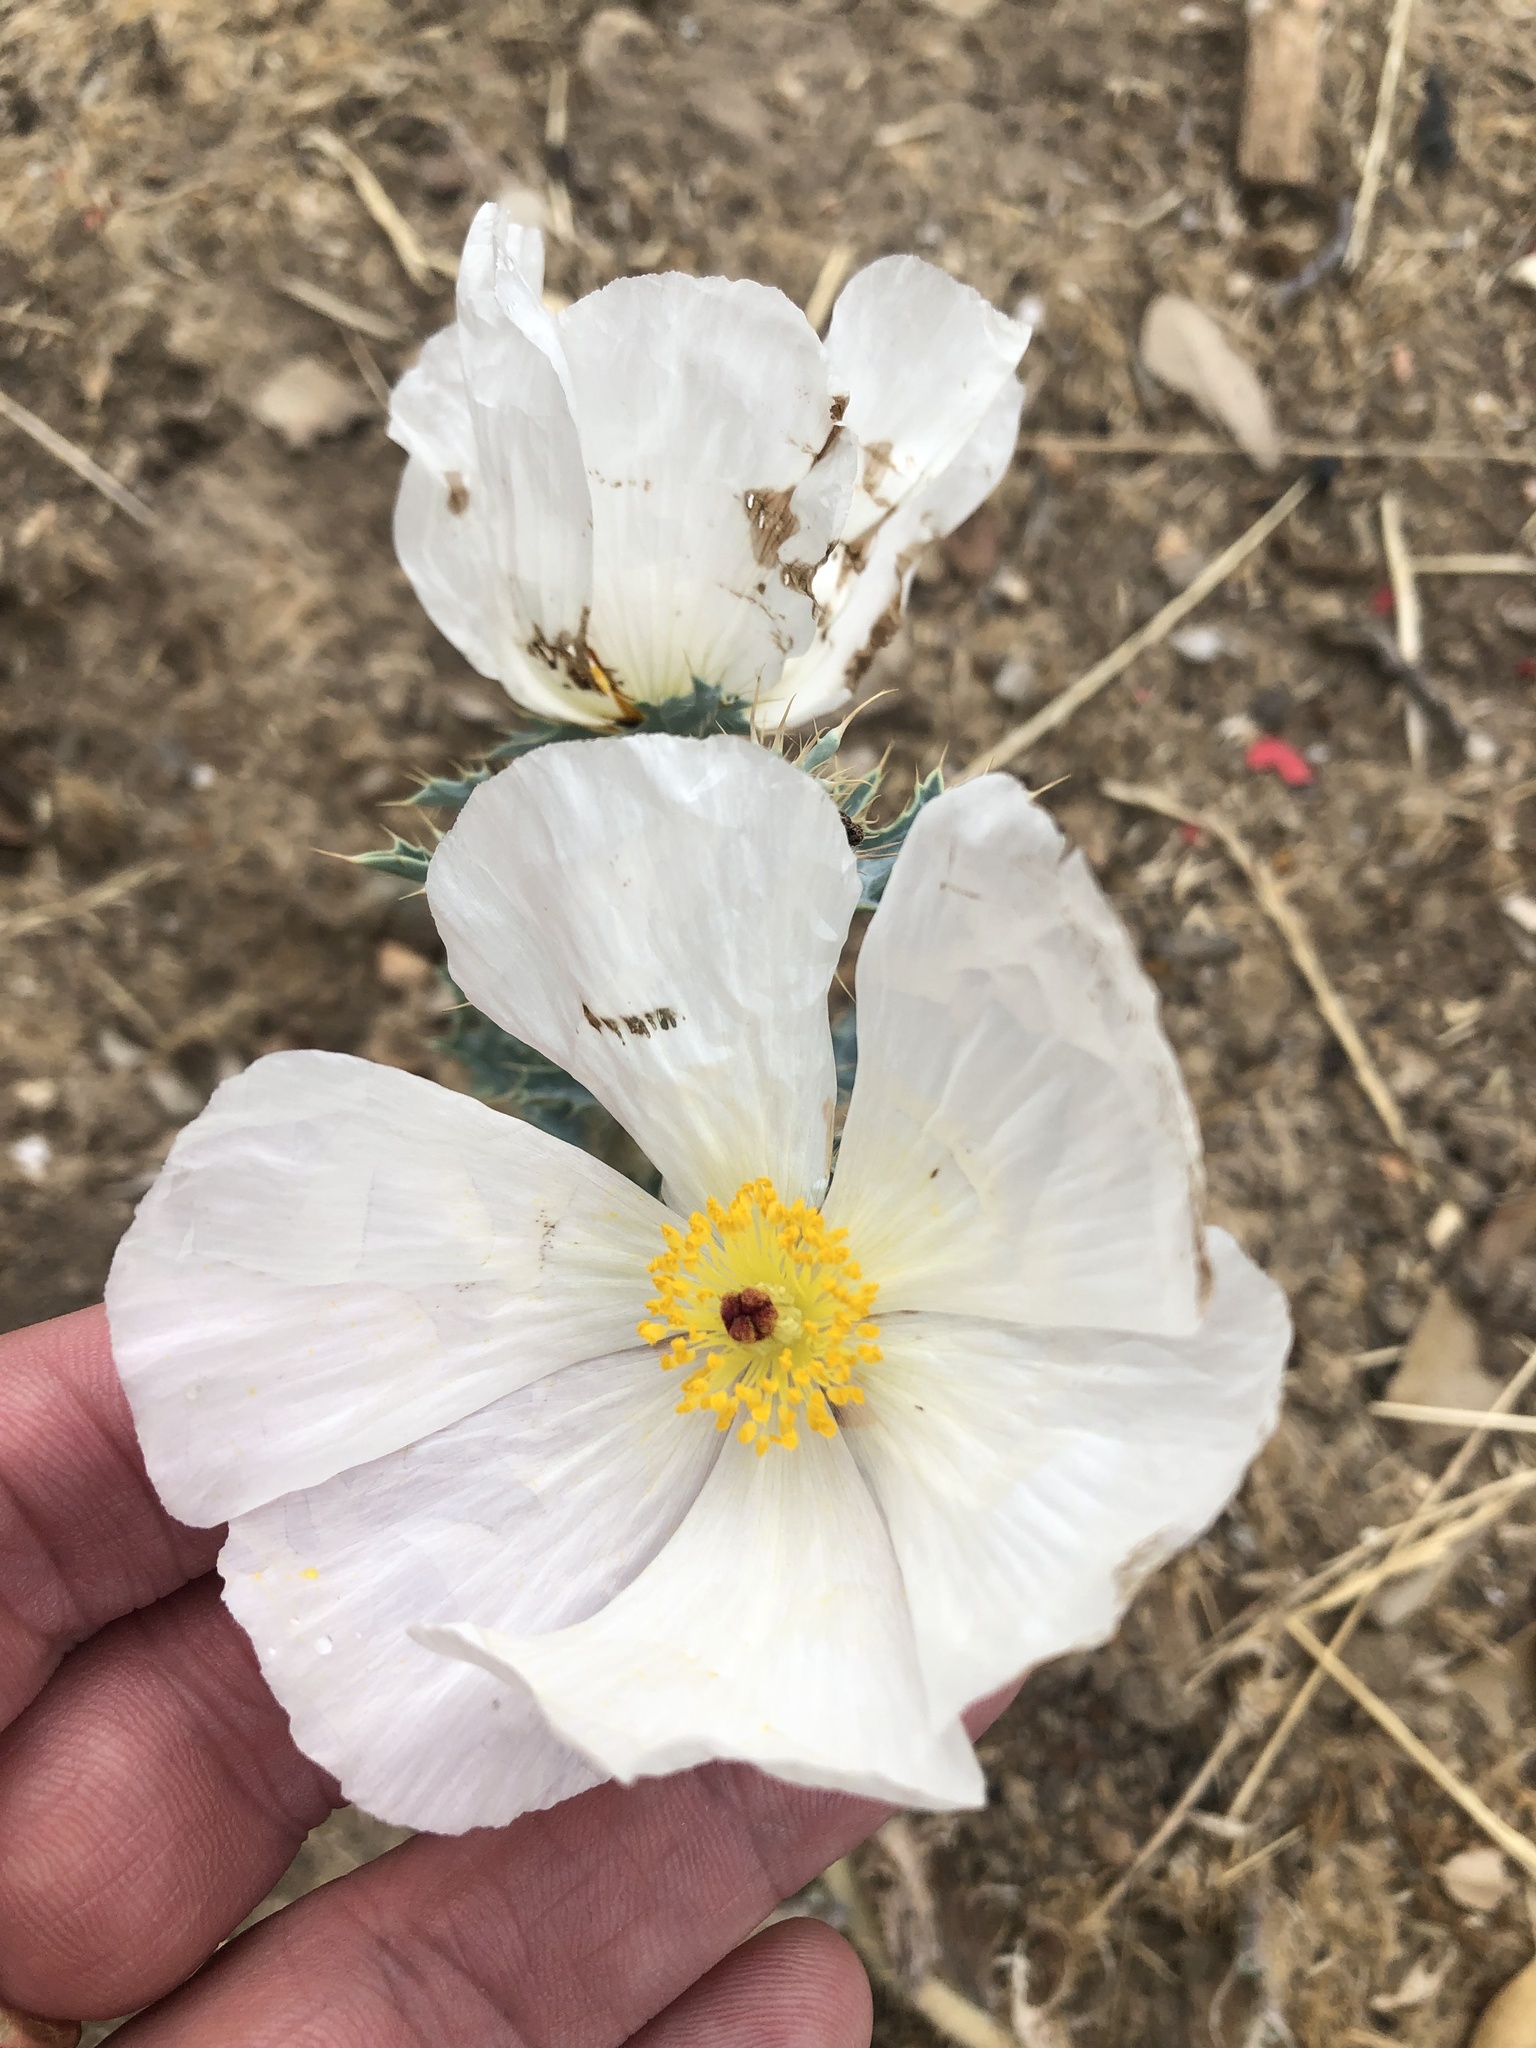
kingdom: Plantae
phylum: Tracheophyta
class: Magnoliopsida
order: Ranunculales
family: Papaveraceae
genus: Argemone
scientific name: Argemone albiflora
